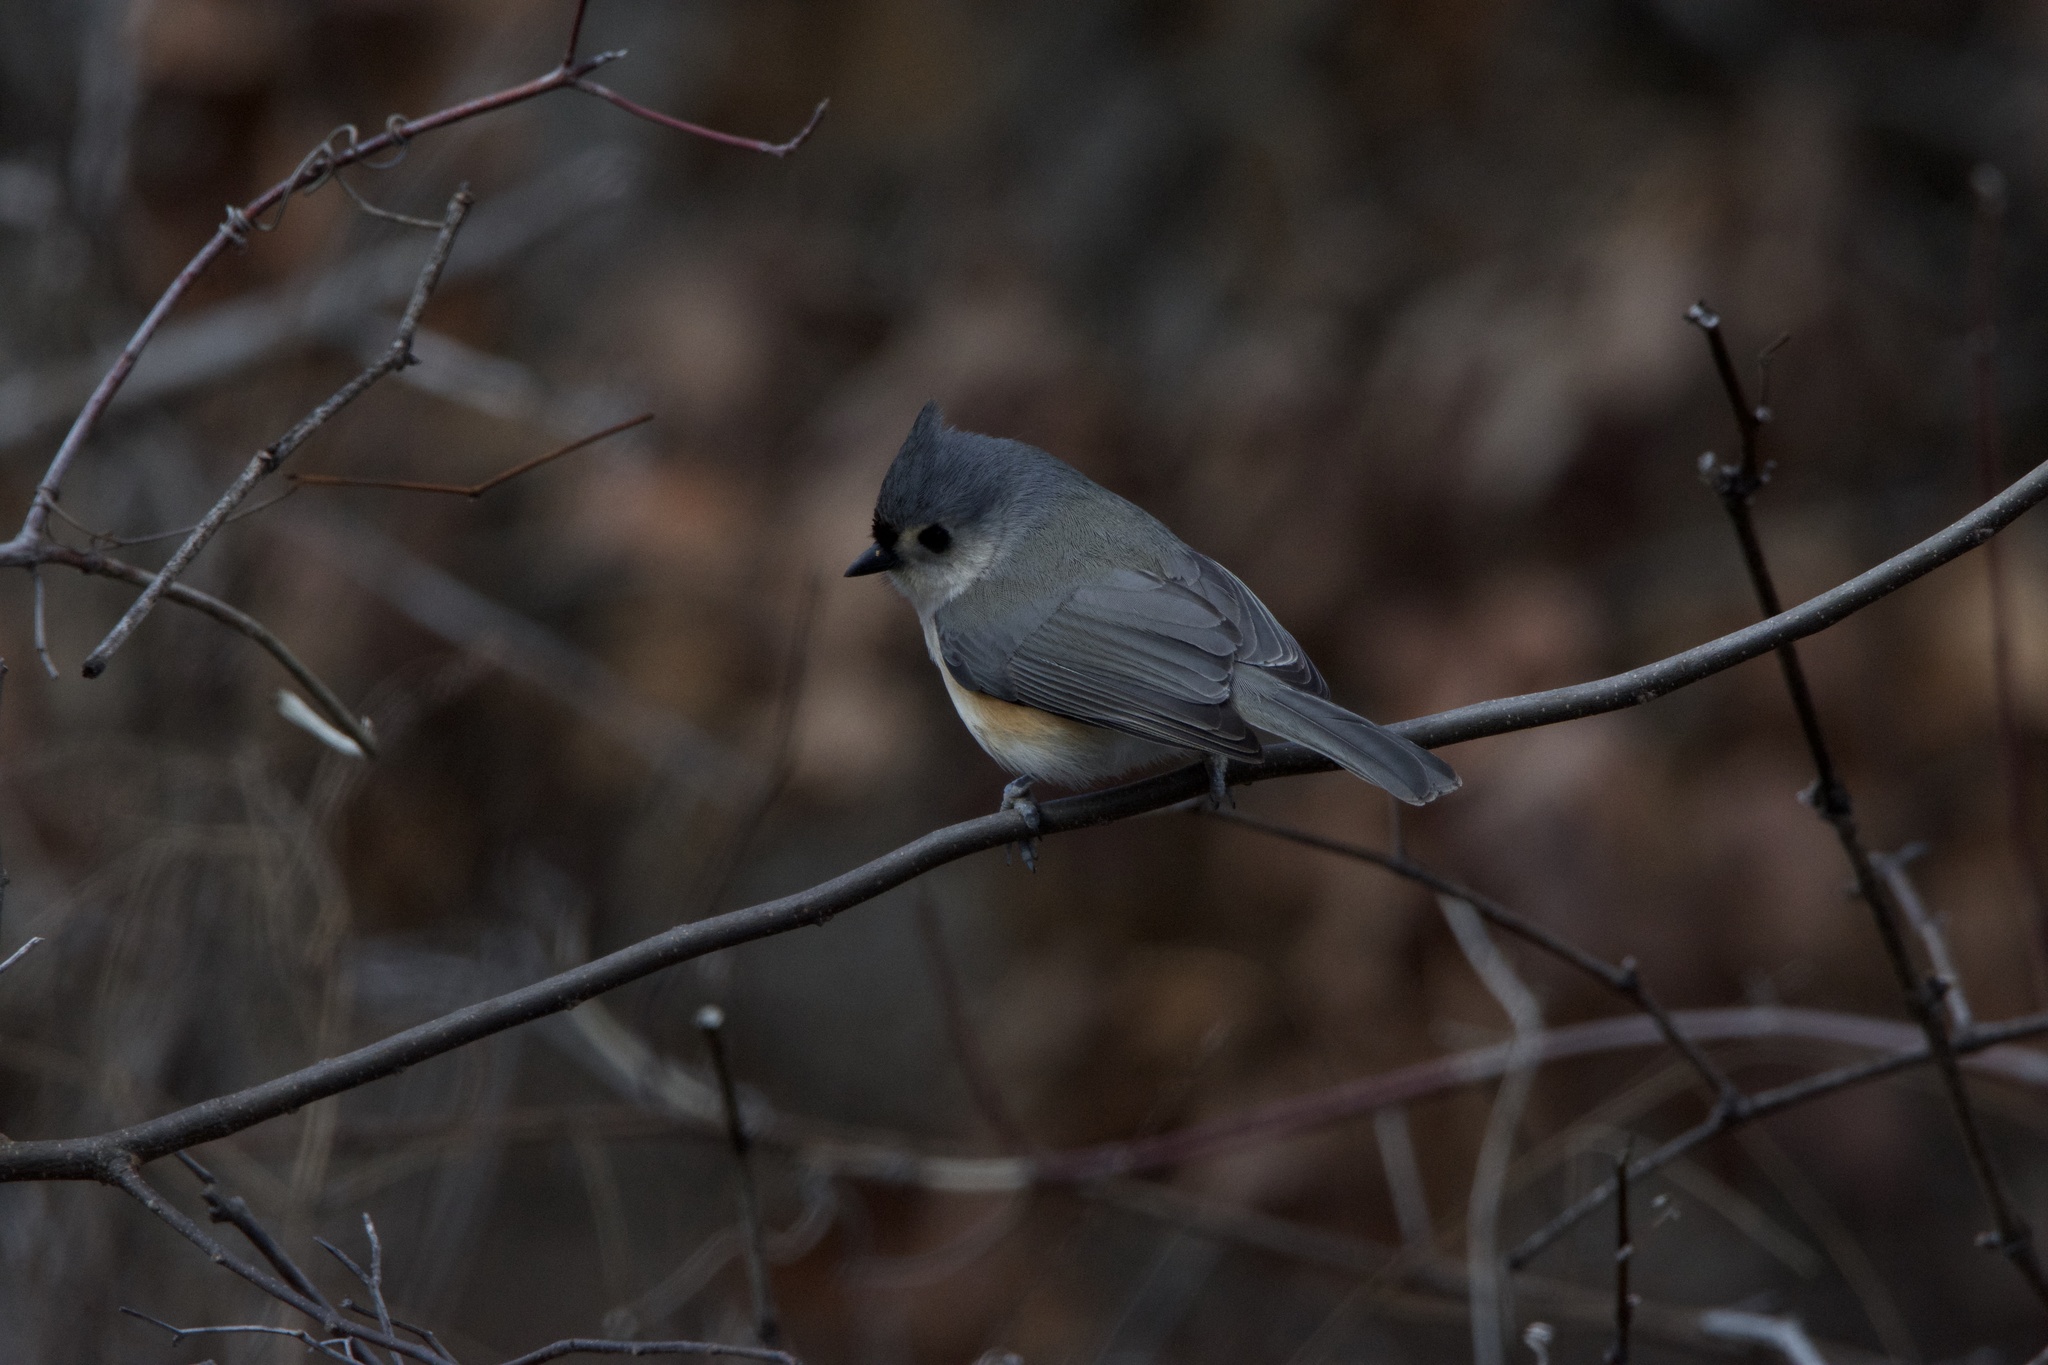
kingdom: Animalia
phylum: Chordata
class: Aves
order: Passeriformes
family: Paridae
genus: Baeolophus
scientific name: Baeolophus bicolor
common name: Tufted titmouse
